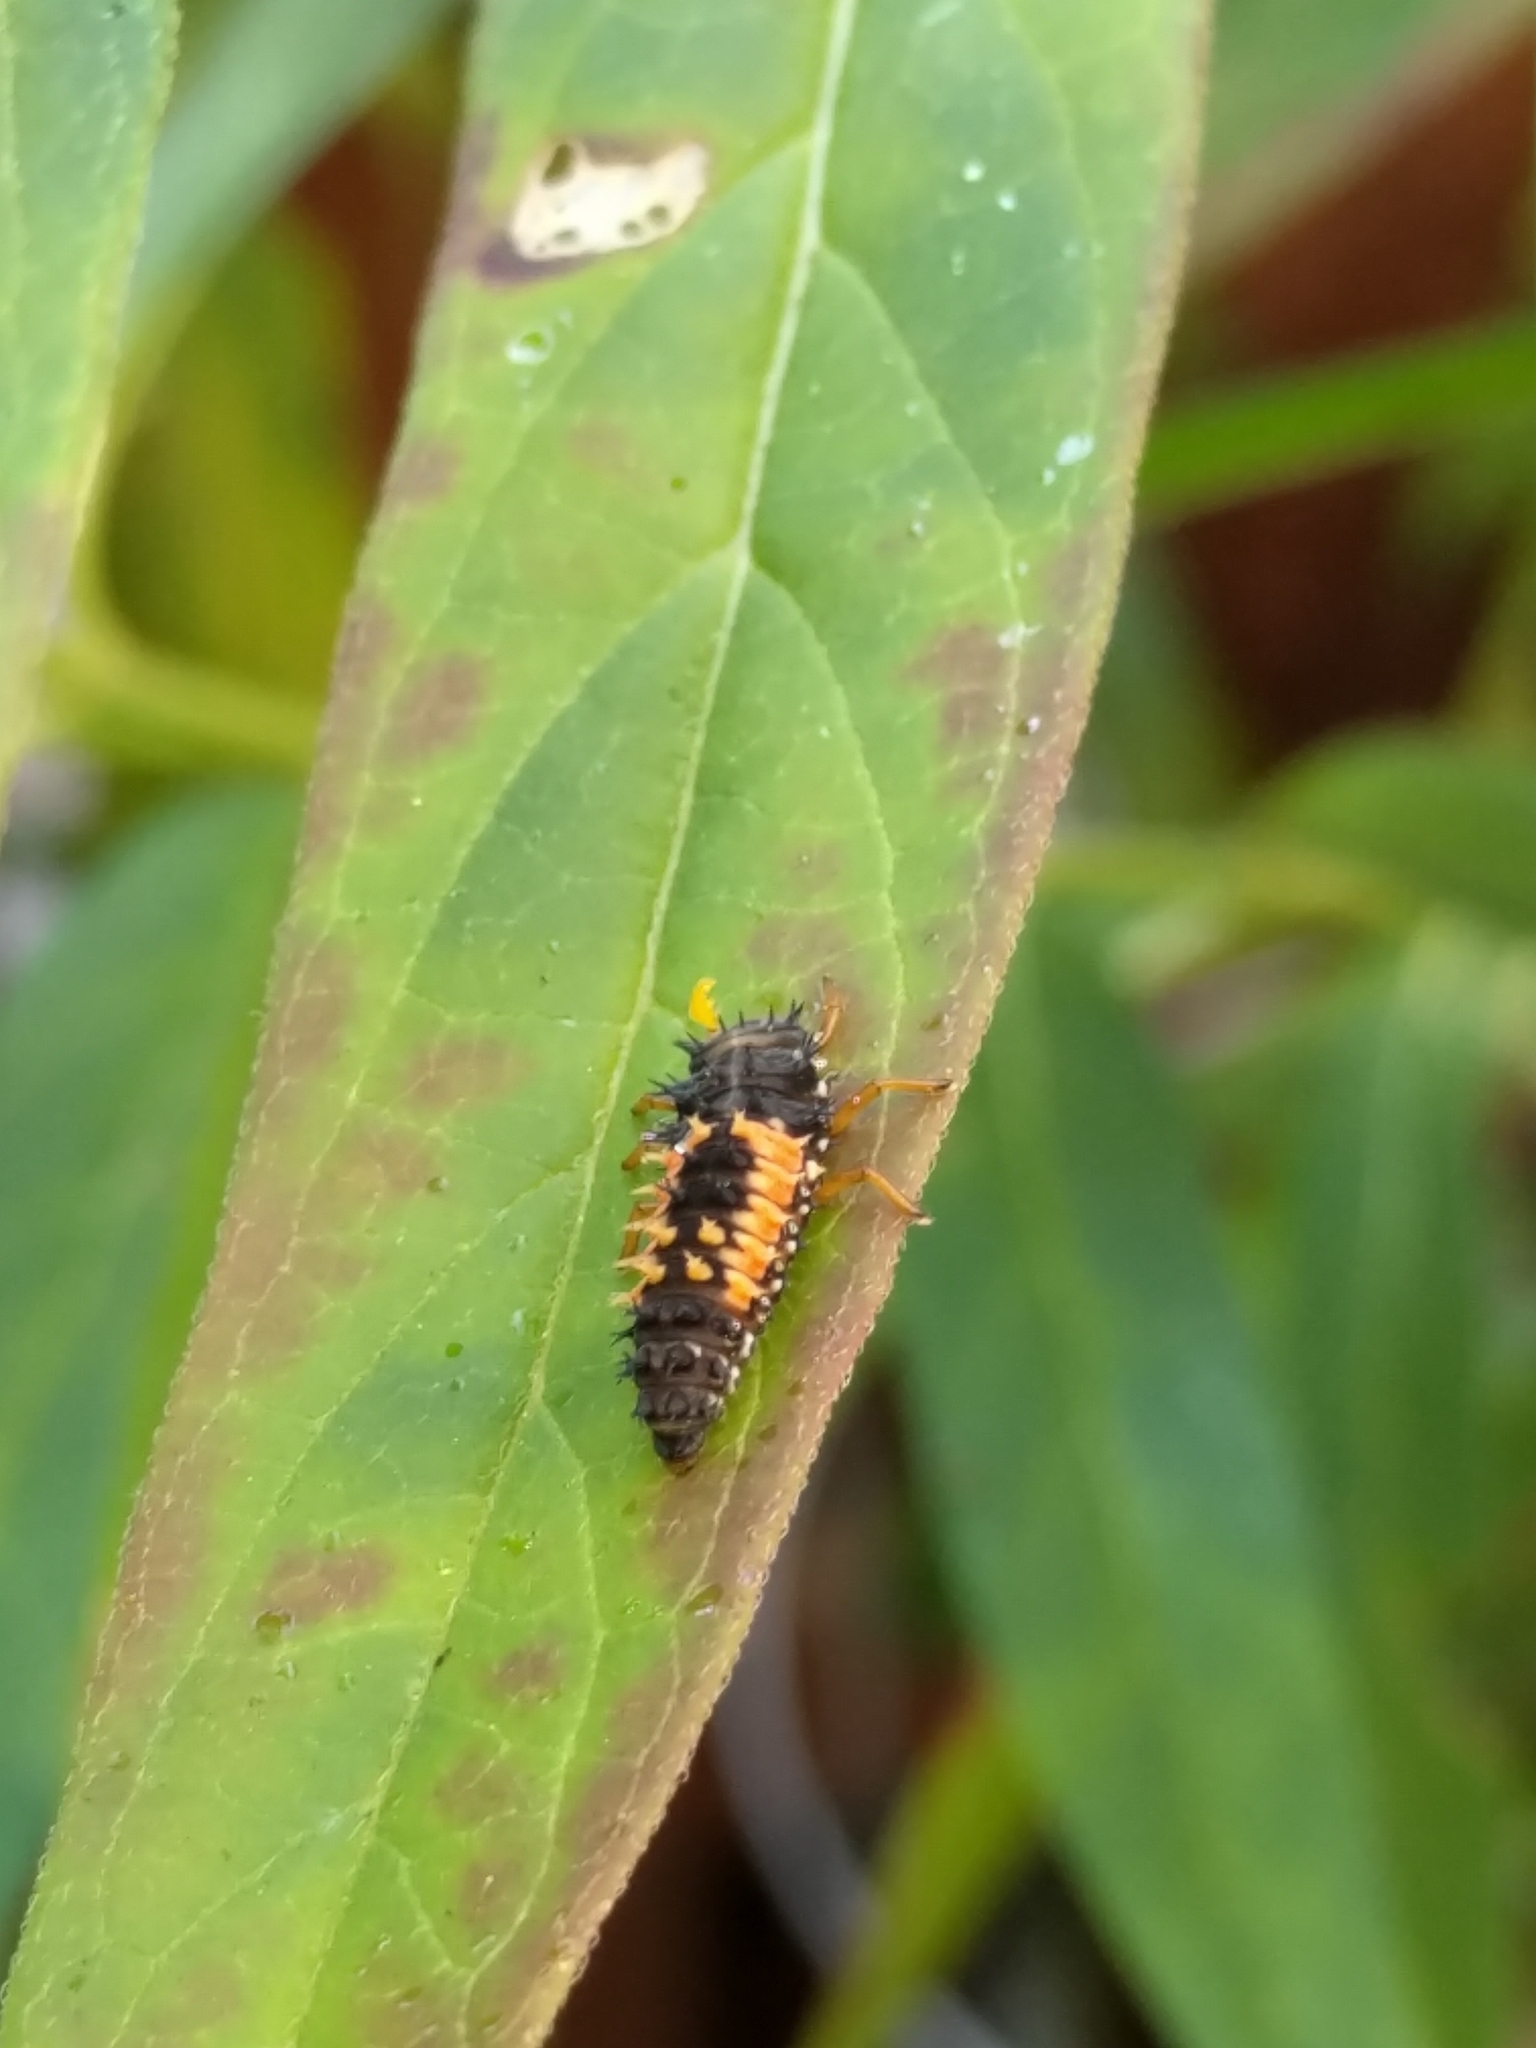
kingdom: Animalia
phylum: Arthropoda
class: Insecta
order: Coleoptera
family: Coccinellidae
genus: Harmonia
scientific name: Harmonia axyridis
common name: Harlequin ladybird
